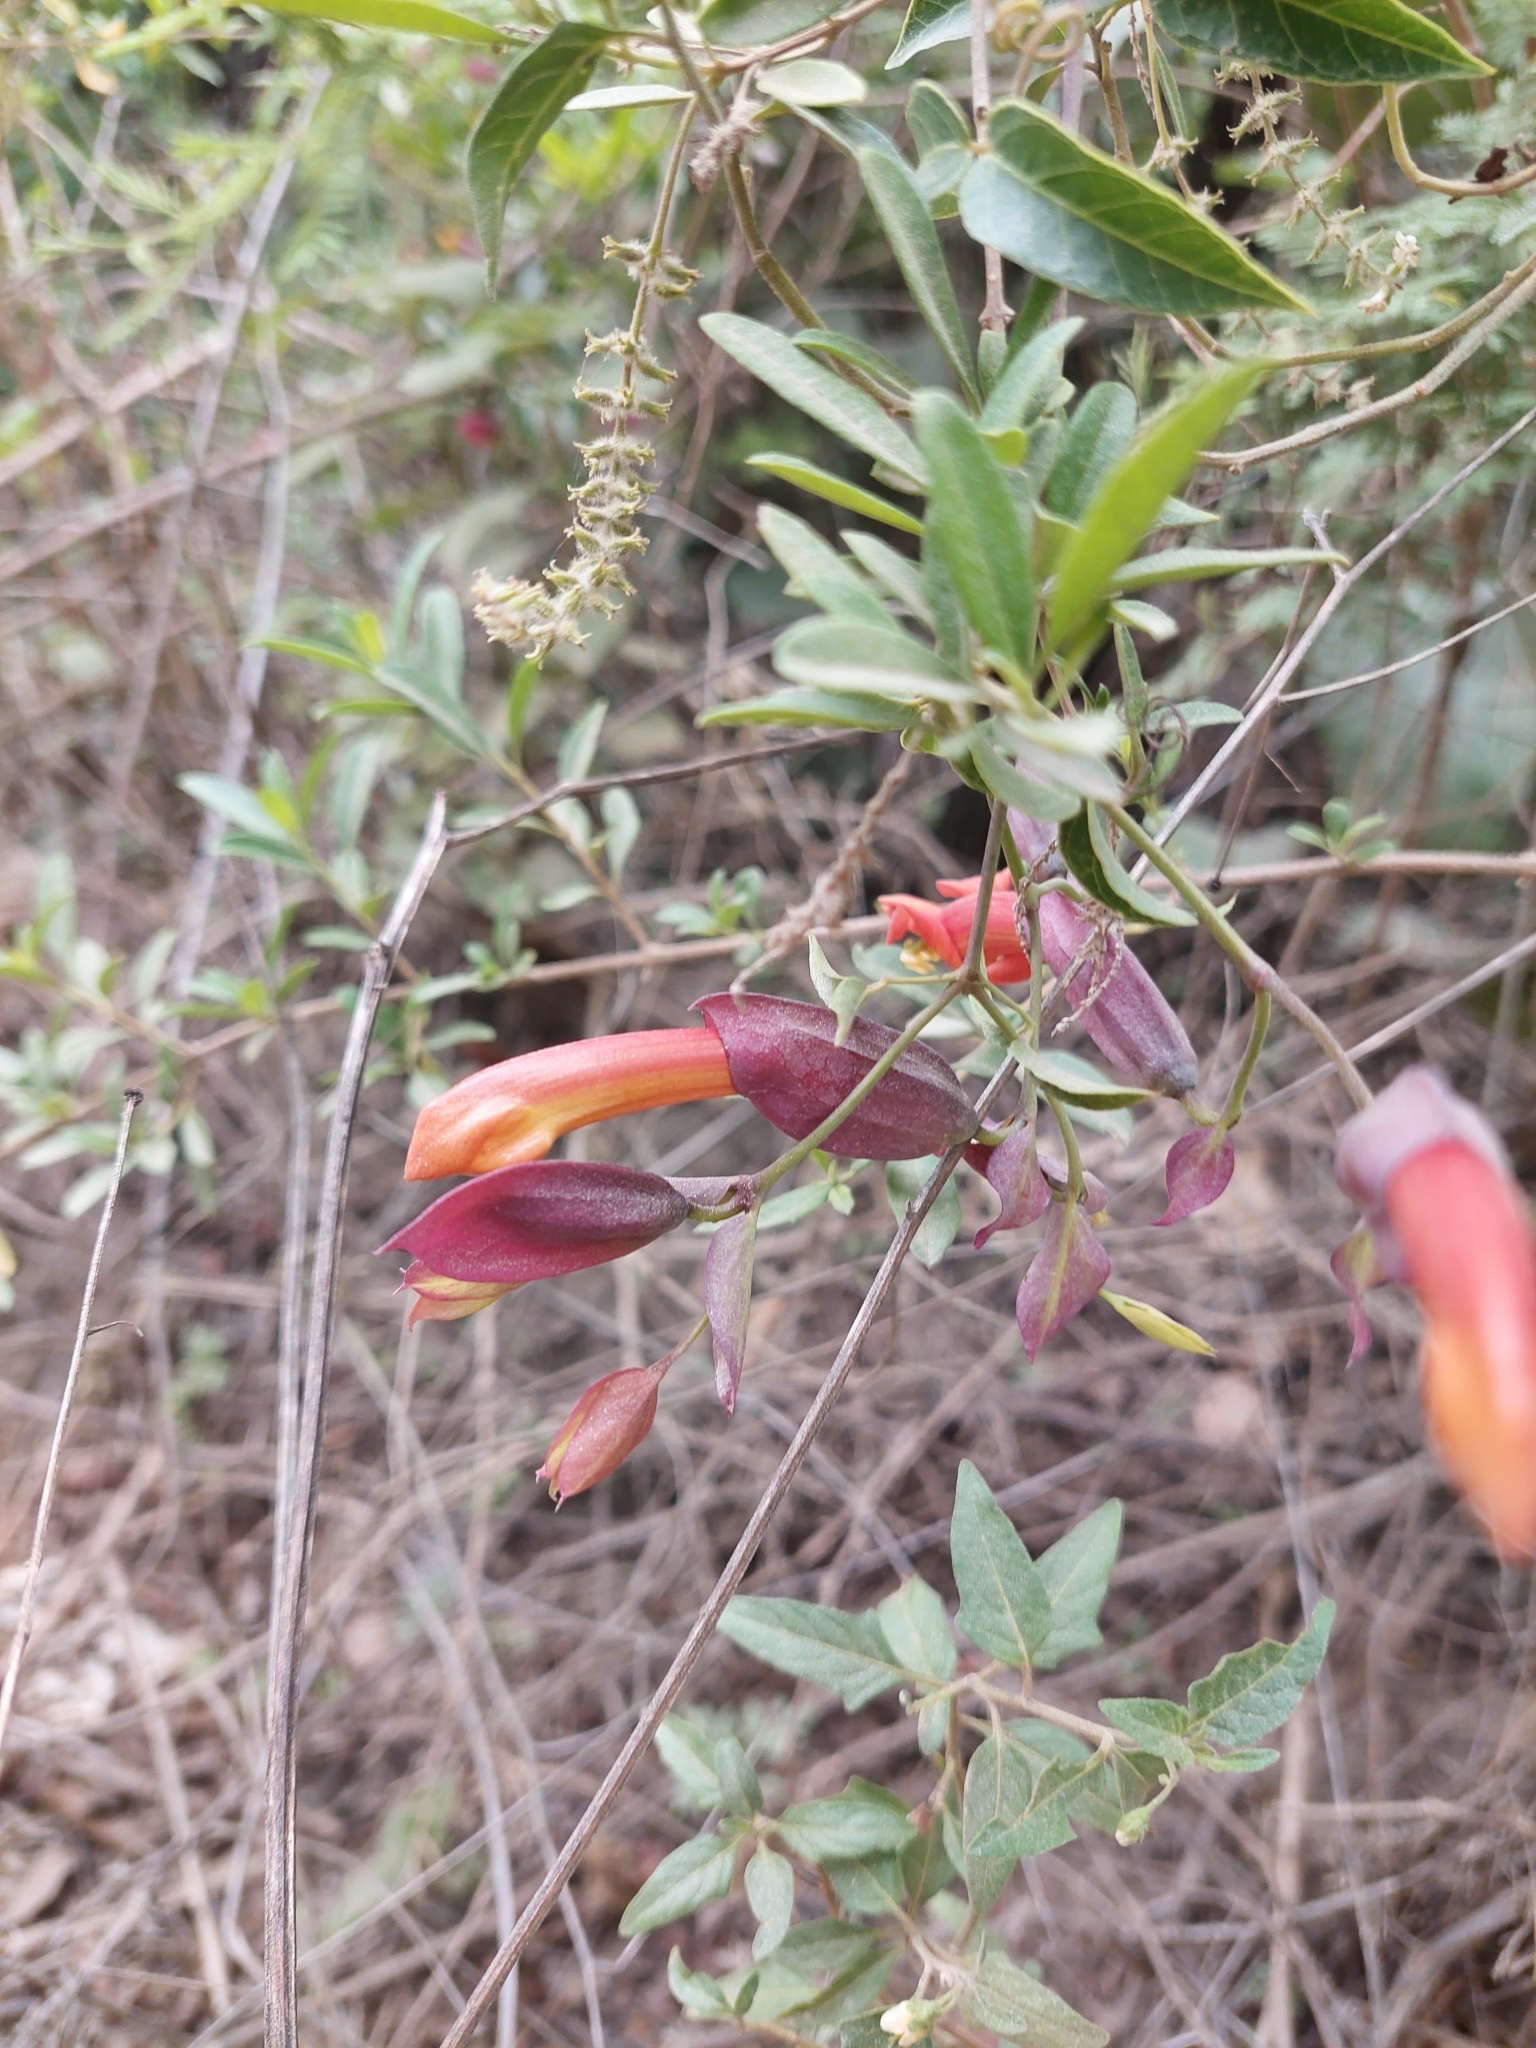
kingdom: Plantae
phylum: Tracheophyta
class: Magnoliopsida
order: Lamiales
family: Bignoniaceae
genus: Dolichandra
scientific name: Dolichandra cynanchoides
